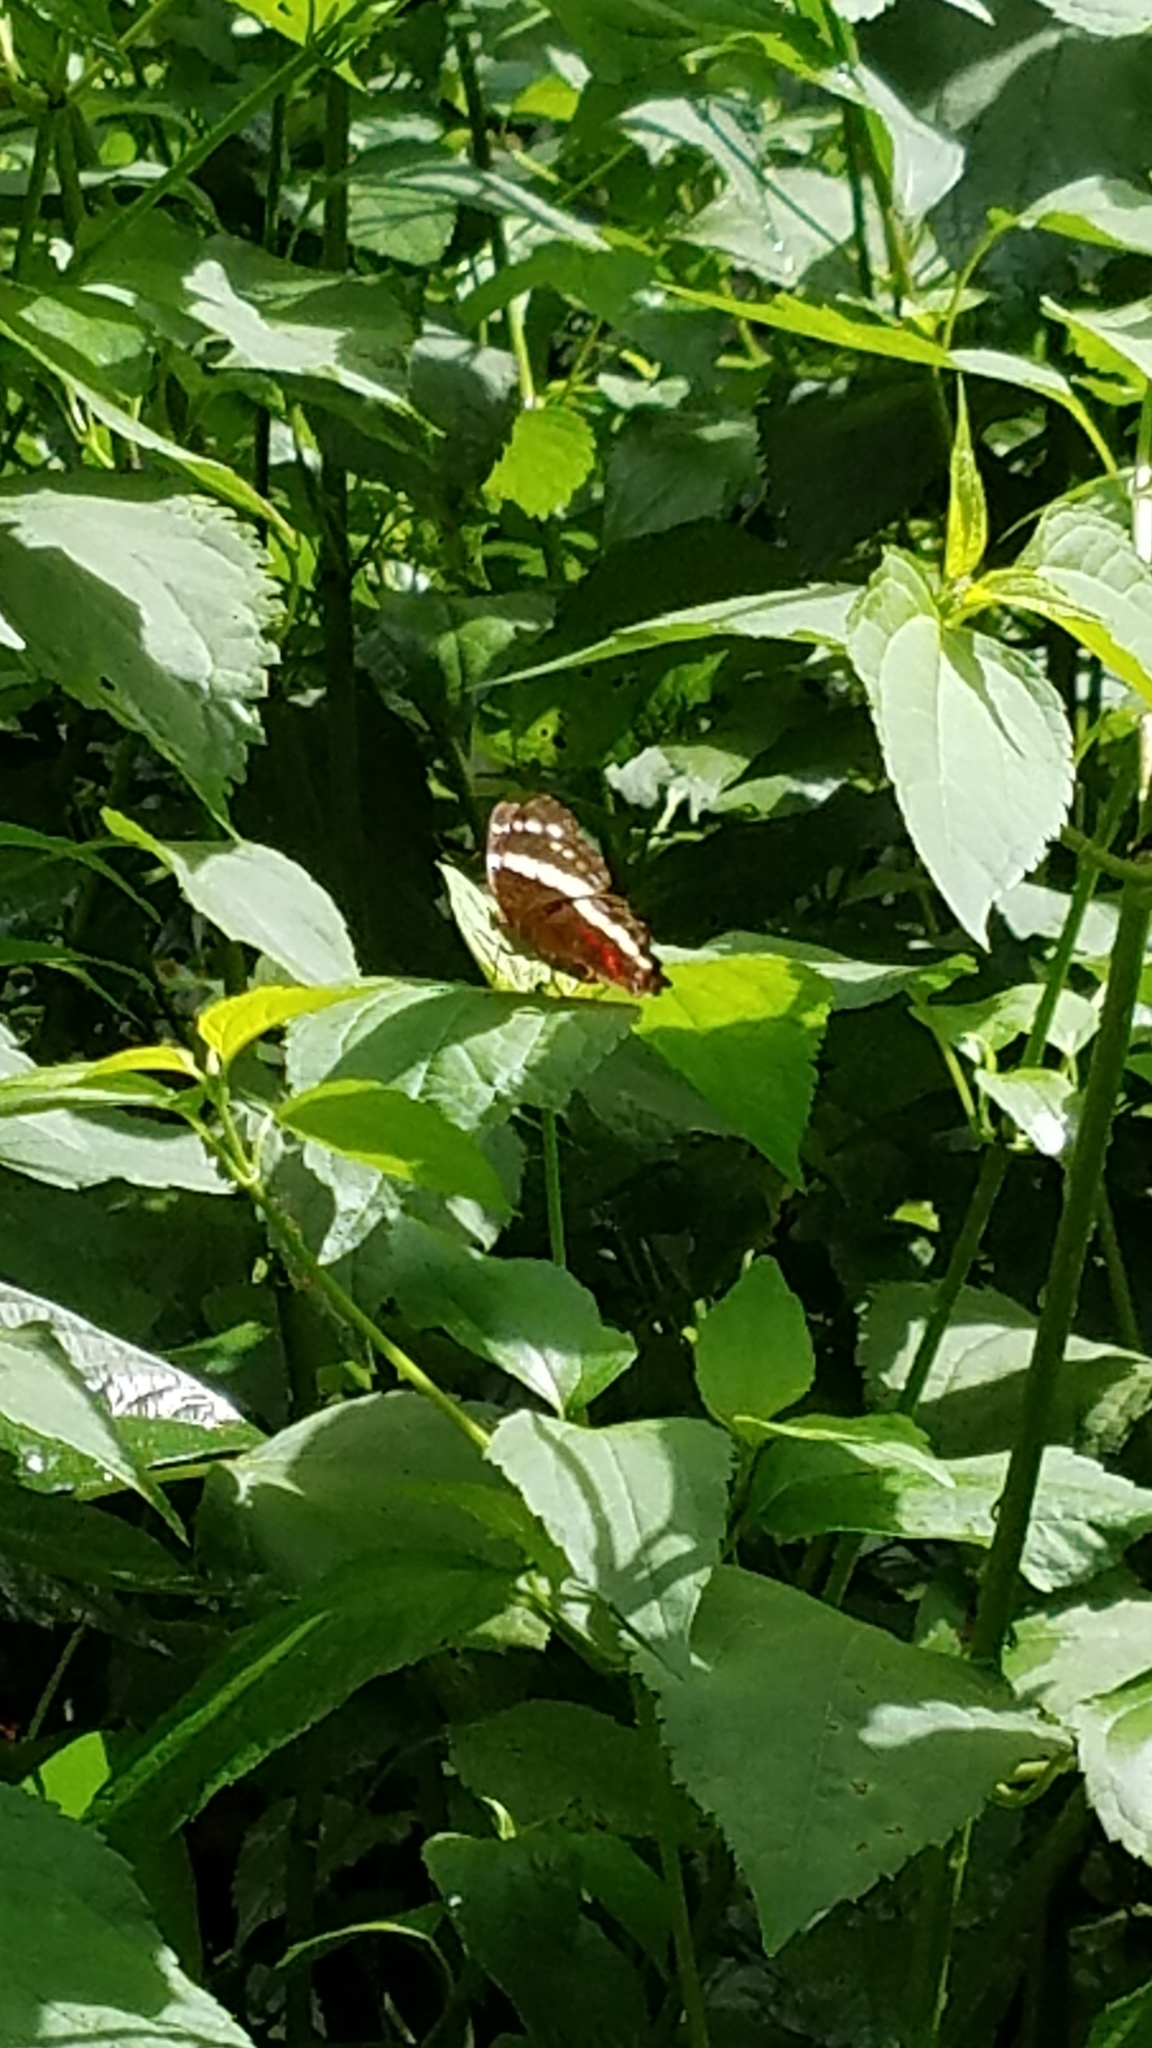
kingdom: Animalia
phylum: Arthropoda
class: Insecta
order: Lepidoptera
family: Nymphalidae
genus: Anartia
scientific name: Anartia fatima
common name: Banded peacock
